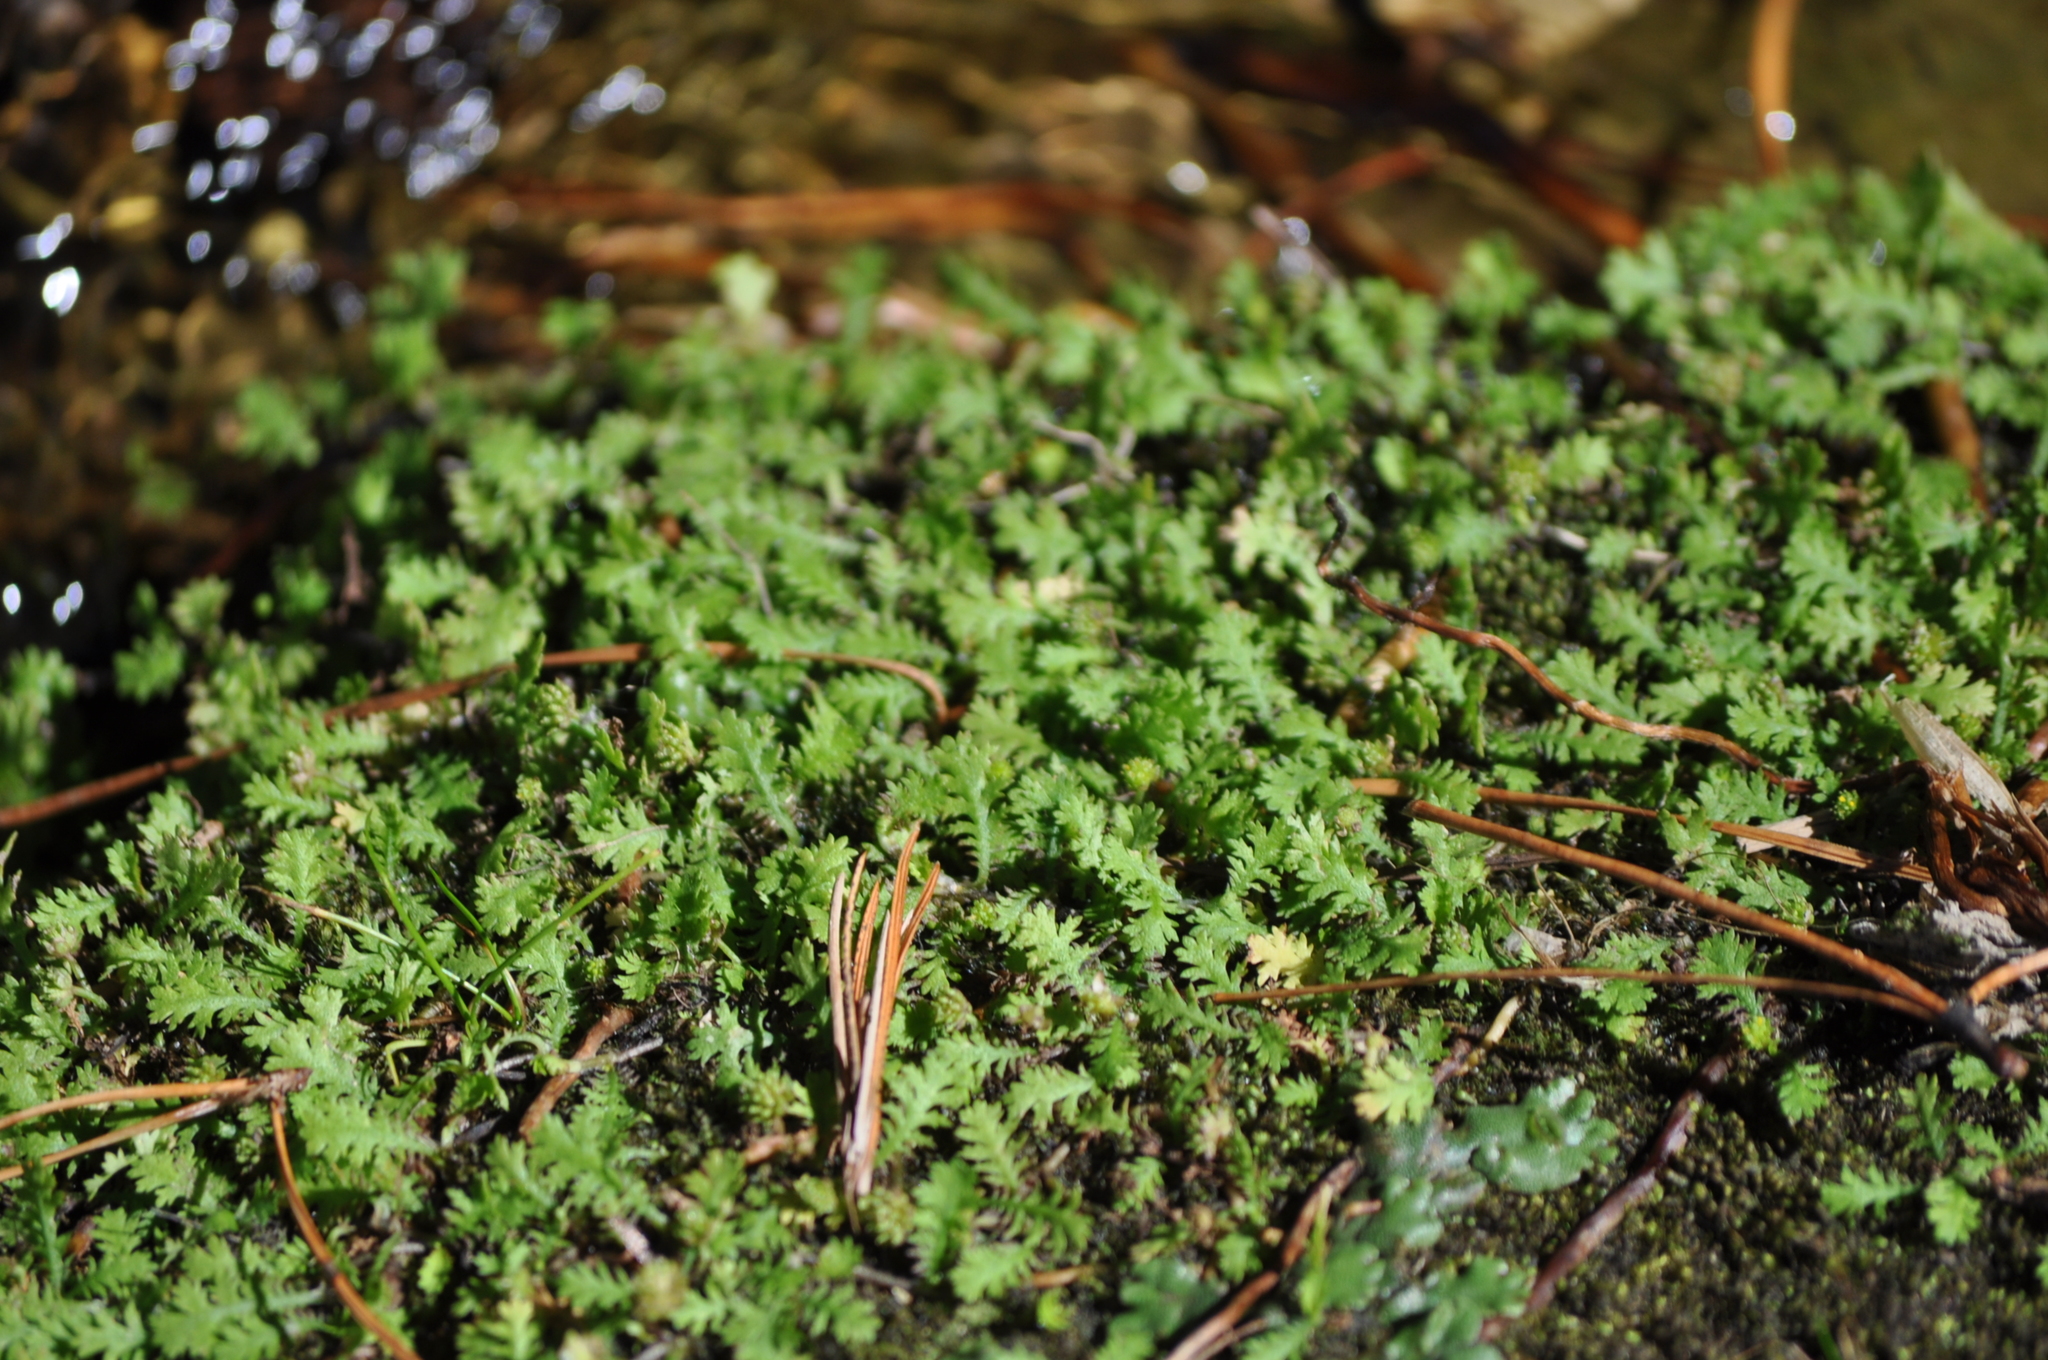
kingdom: Plantae
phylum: Tracheophyta
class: Magnoliopsida
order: Asterales
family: Asteraceae
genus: Leptinella
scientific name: Leptinella tenella
